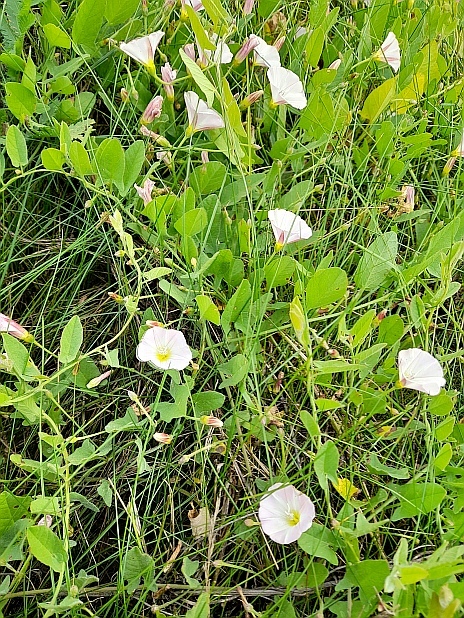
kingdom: Plantae
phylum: Tracheophyta
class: Magnoliopsida
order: Solanales
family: Convolvulaceae
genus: Convolvulus
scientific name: Convolvulus arvensis
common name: Field bindweed
